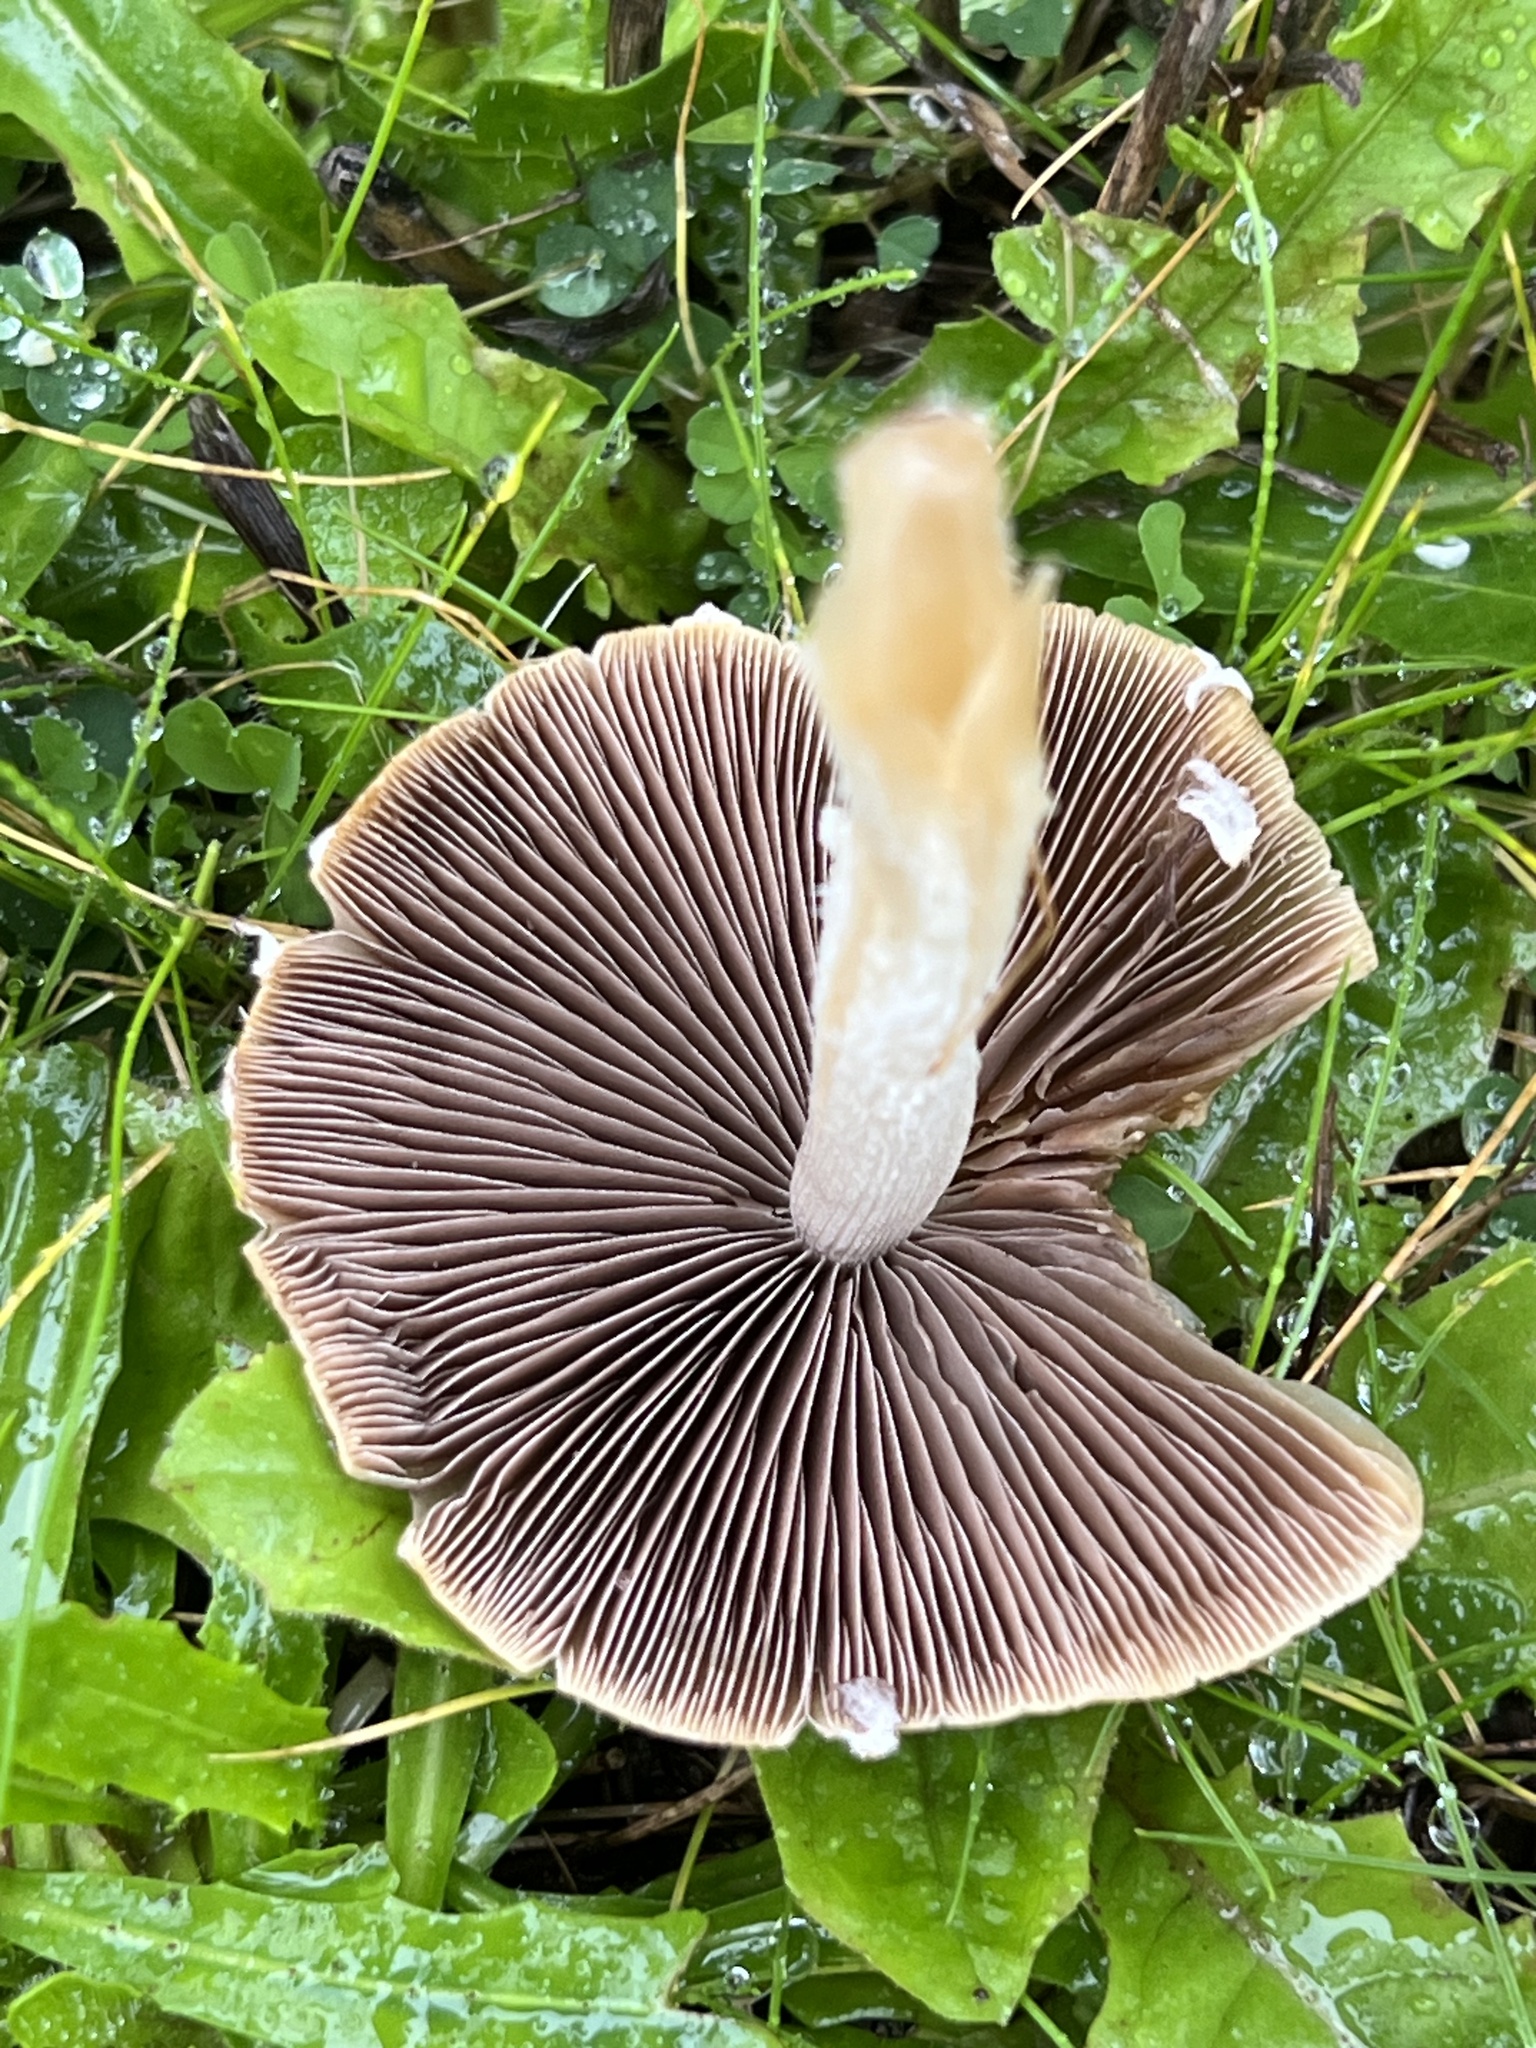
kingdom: Fungi
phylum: Basidiomycota
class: Agaricomycetes
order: Agaricales
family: Psathyrellaceae
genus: Candolleomyces
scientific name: Candolleomyces candolleanus
